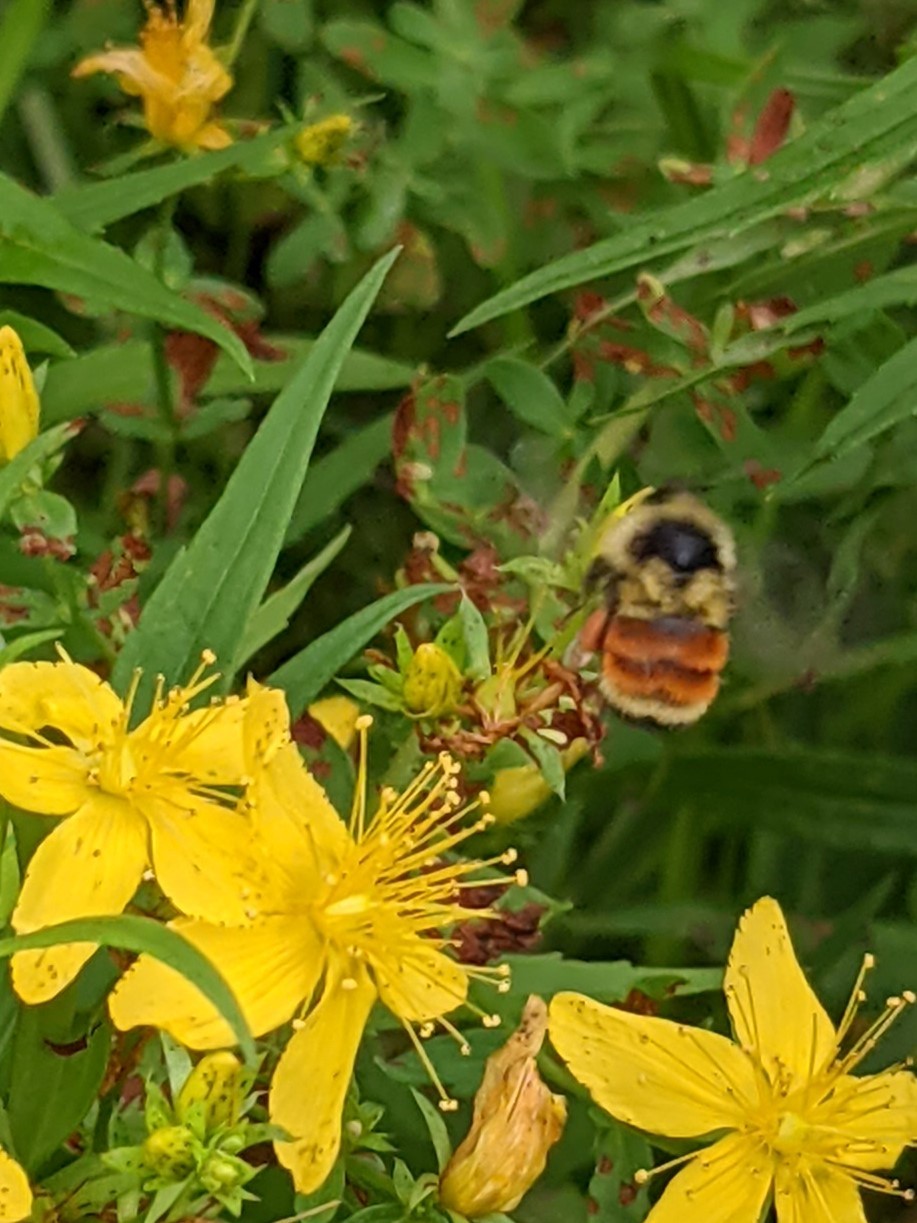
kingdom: Animalia
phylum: Arthropoda
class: Insecta
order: Hymenoptera
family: Apidae
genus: Bombus
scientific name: Bombus ternarius
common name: Tri-colored bumble bee
